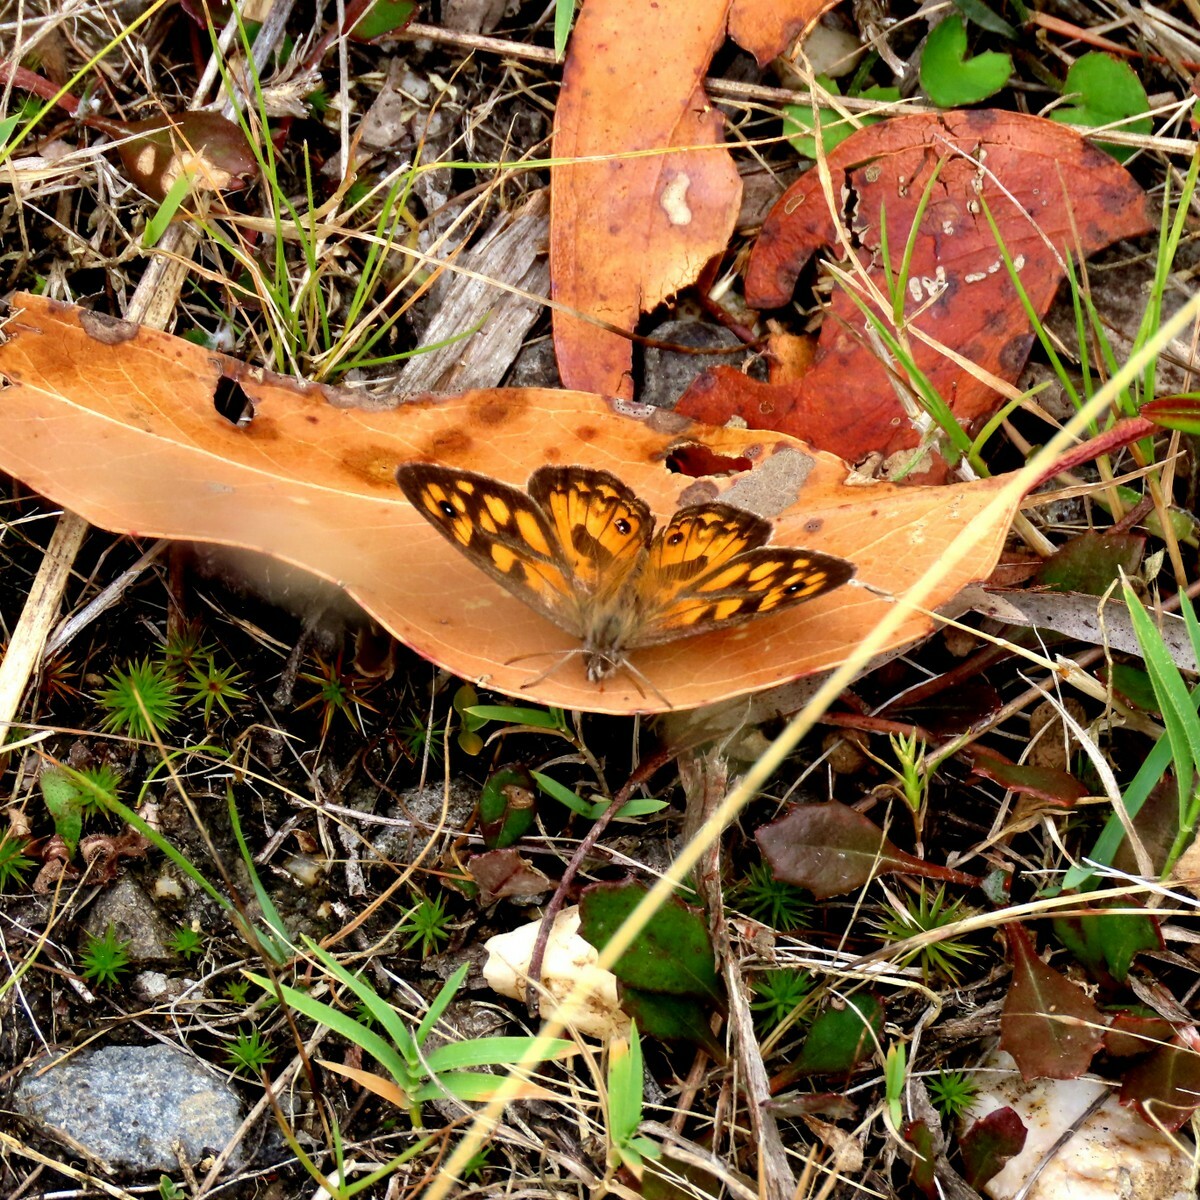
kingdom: Animalia
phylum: Arthropoda
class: Insecta
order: Lepidoptera
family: Nymphalidae
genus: Geitoneura
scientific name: Geitoneura klugii
